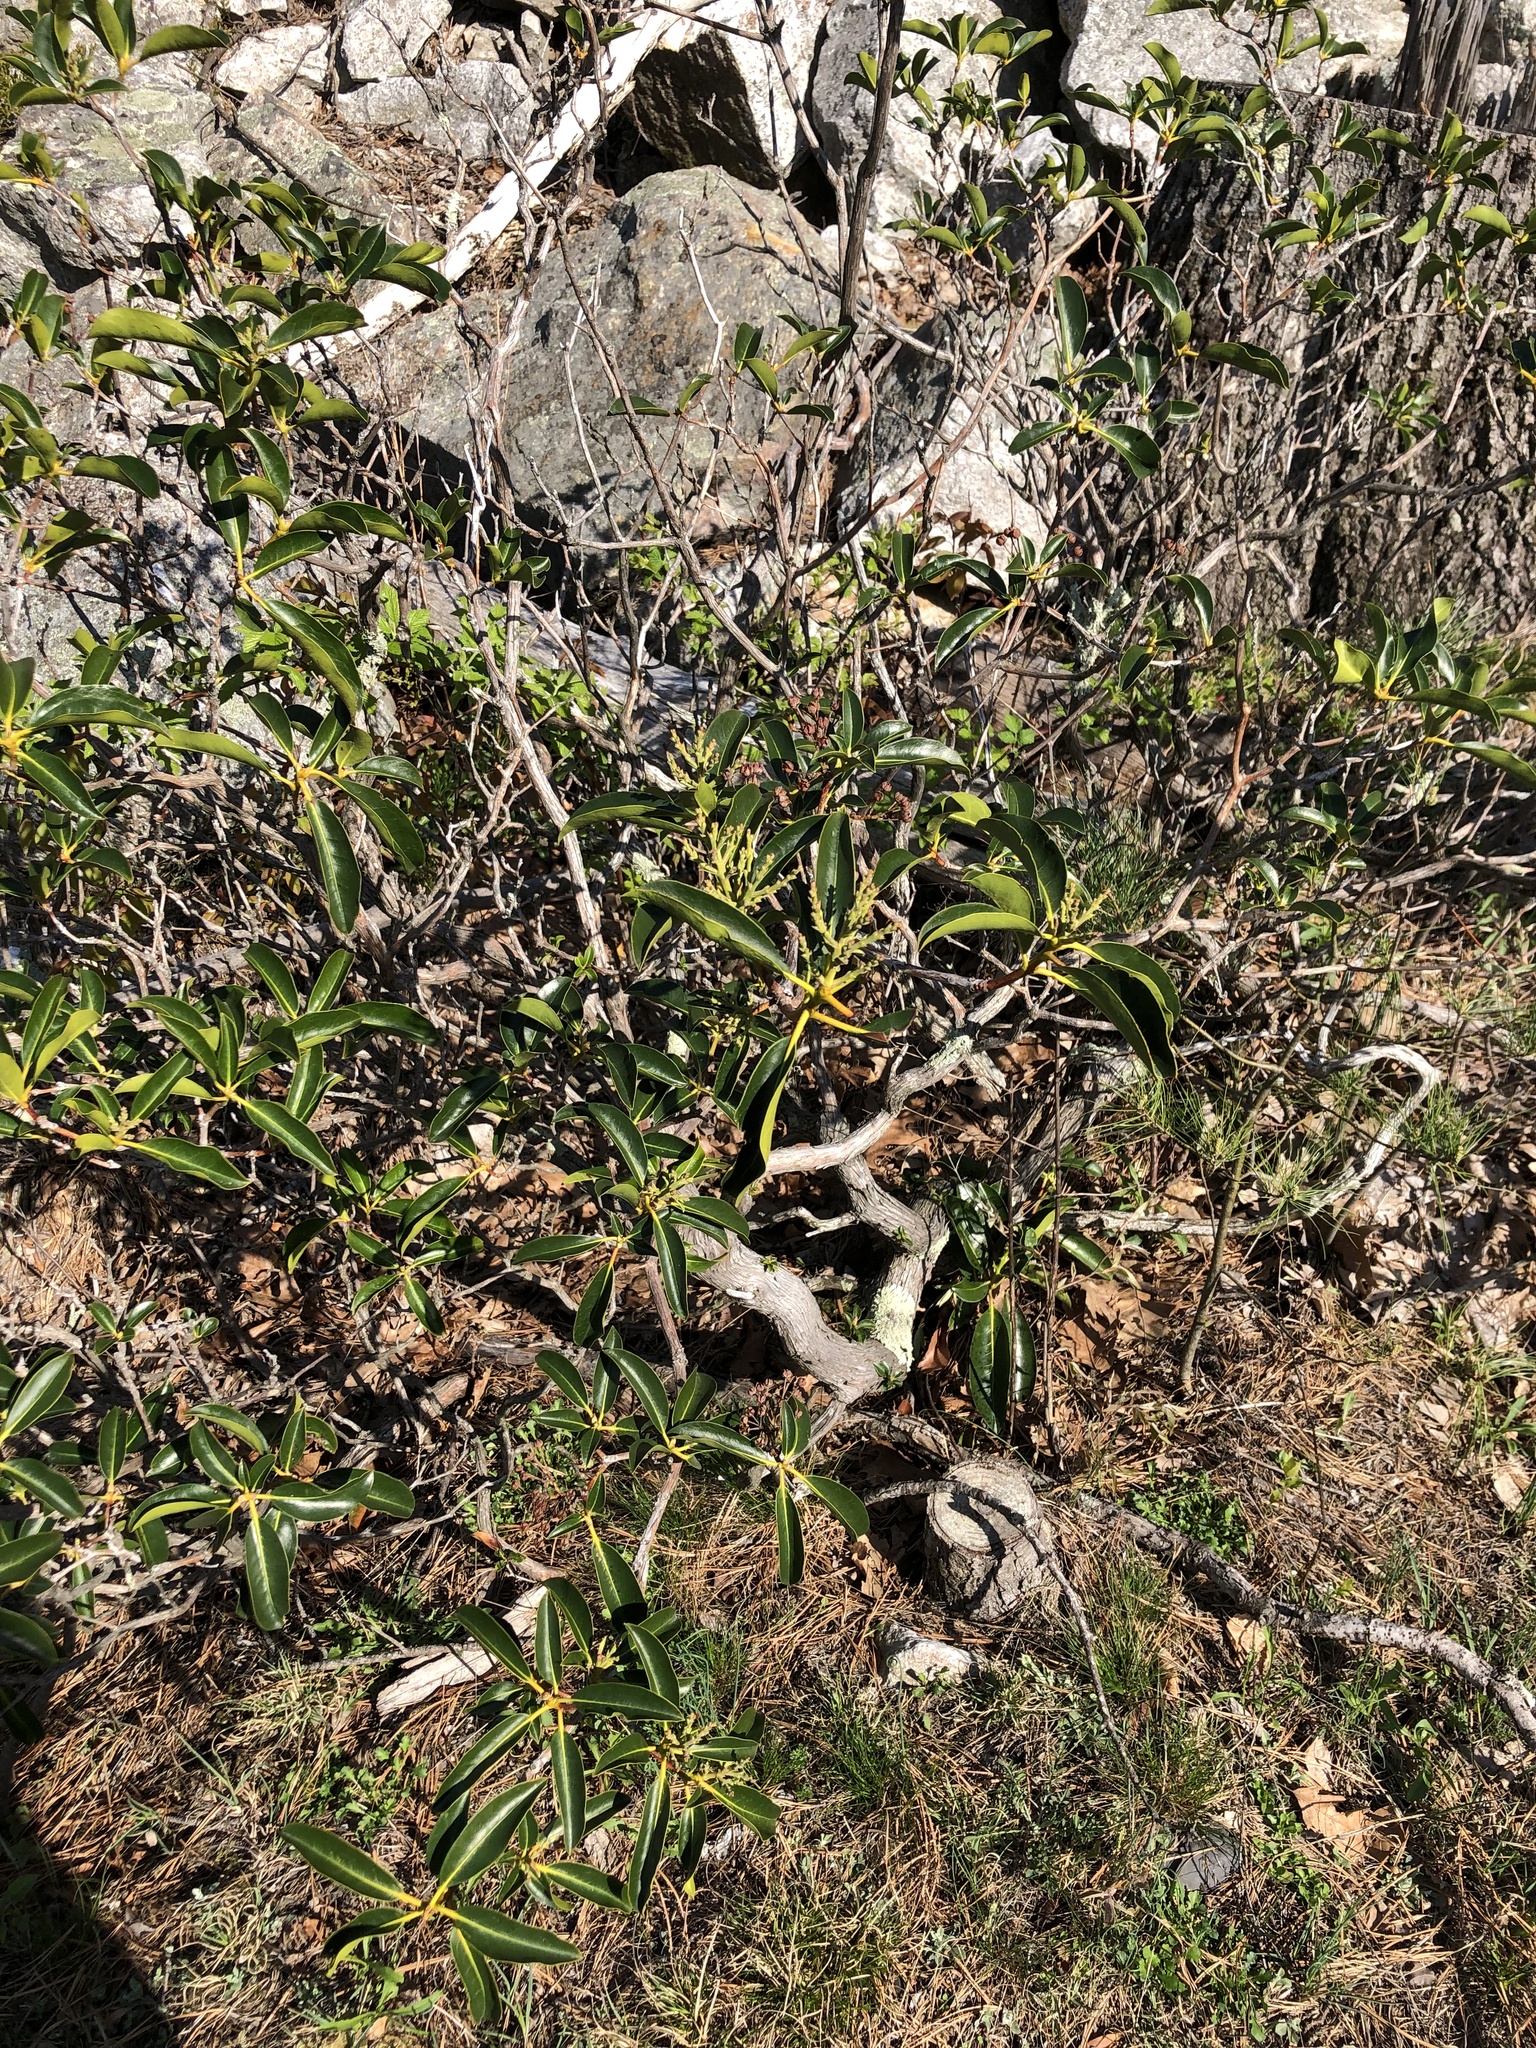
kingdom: Plantae
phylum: Tracheophyta
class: Magnoliopsida
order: Ericales
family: Ericaceae
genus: Kalmia
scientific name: Kalmia latifolia
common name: Mountain-laurel
